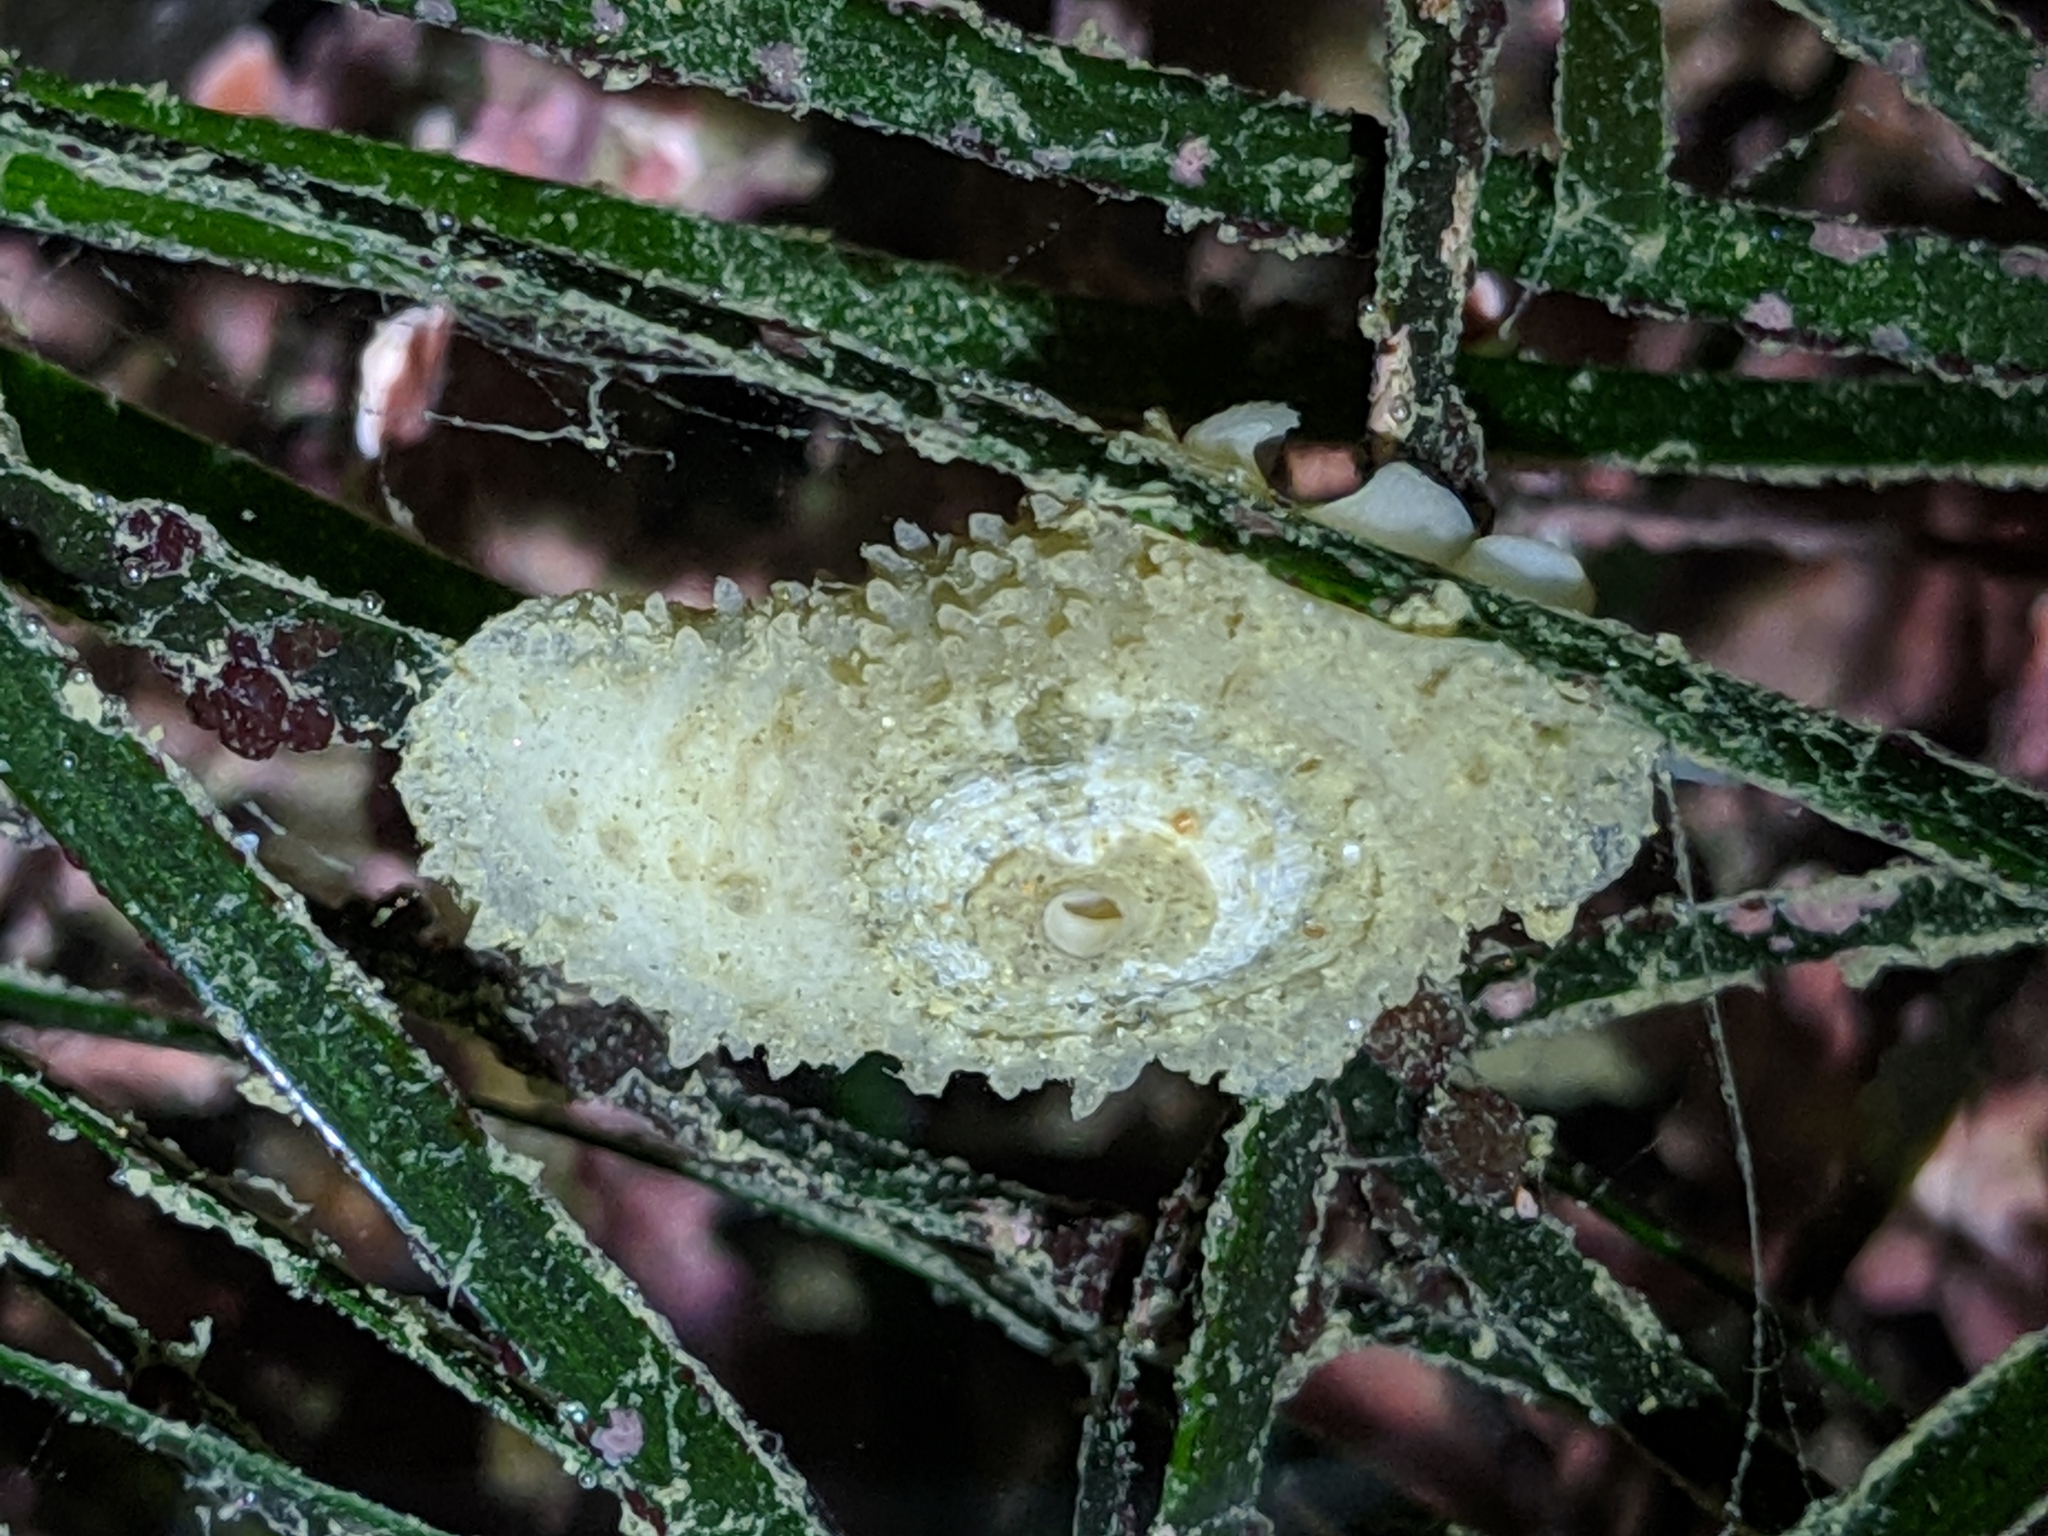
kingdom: Animalia
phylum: Mollusca
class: Gastropoda
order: Lepetellida
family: Fissurellidae
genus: Fissurellidea
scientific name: Fissurellidea bimaculata
